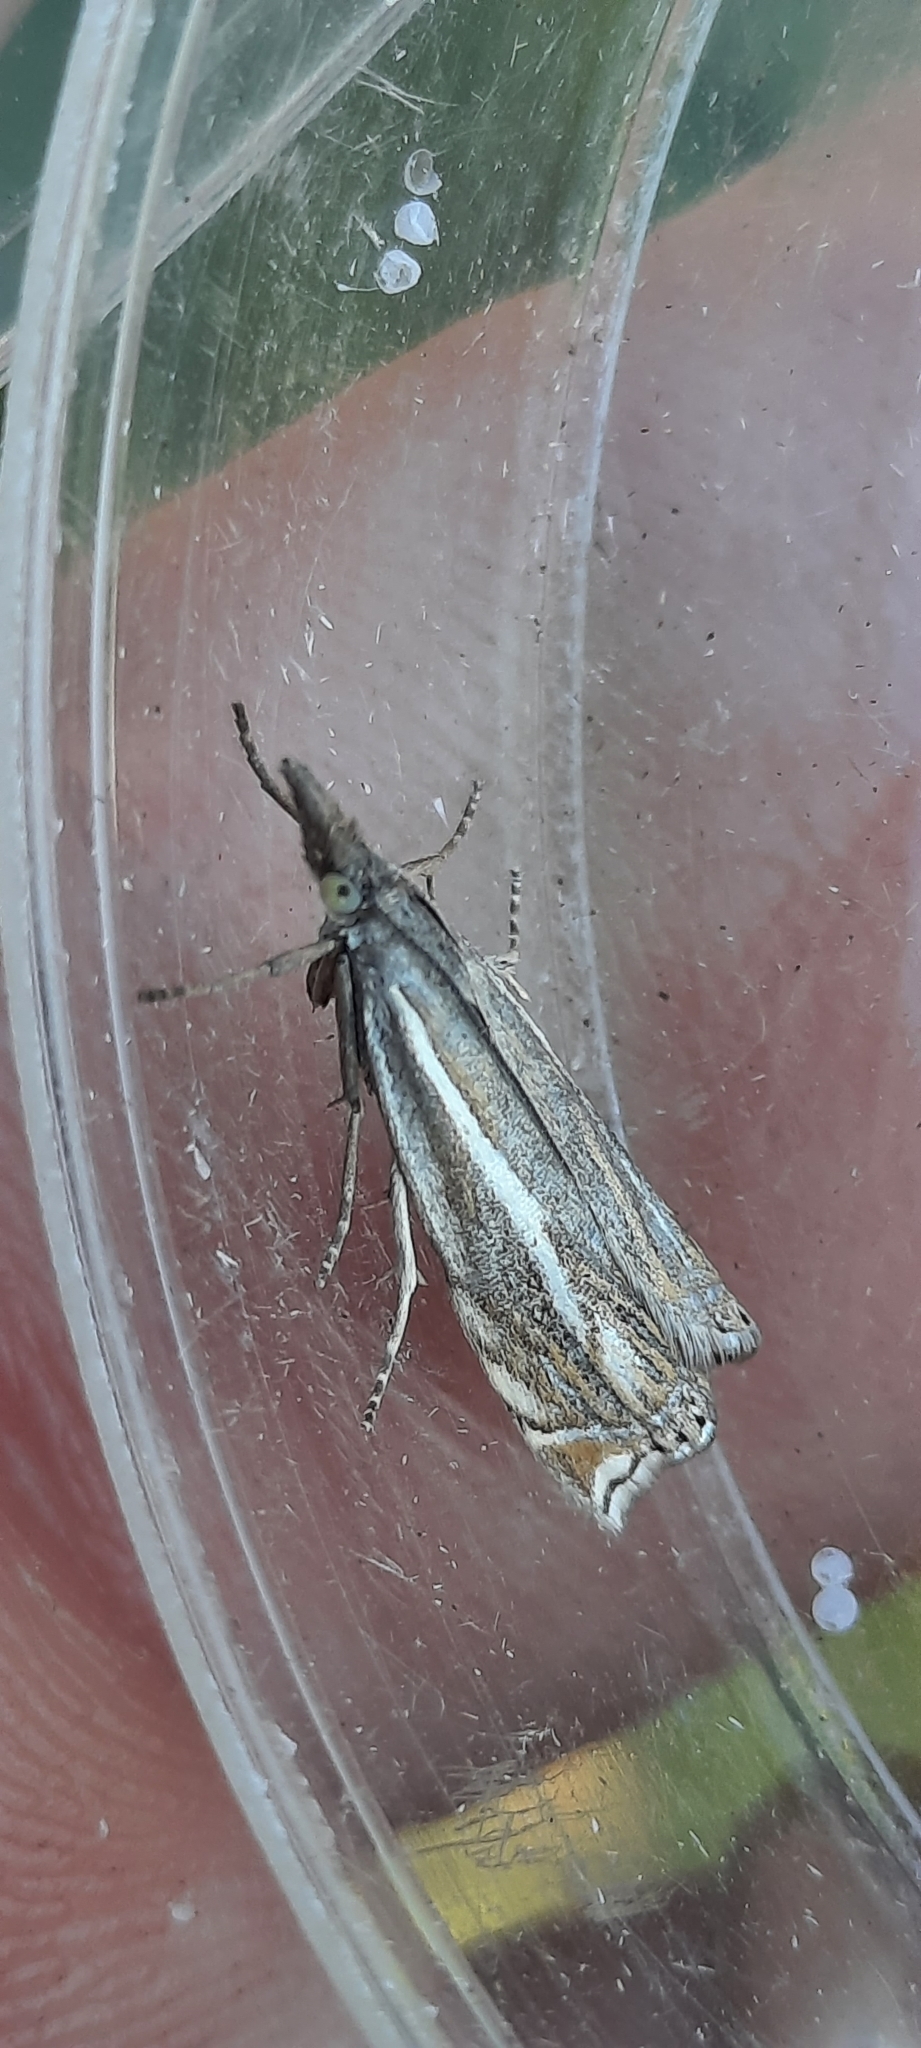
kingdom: Animalia
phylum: Arthropoda
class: Insecta
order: Lepidoptera
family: Crambidae
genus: Crambus
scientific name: Crambus nemorella
